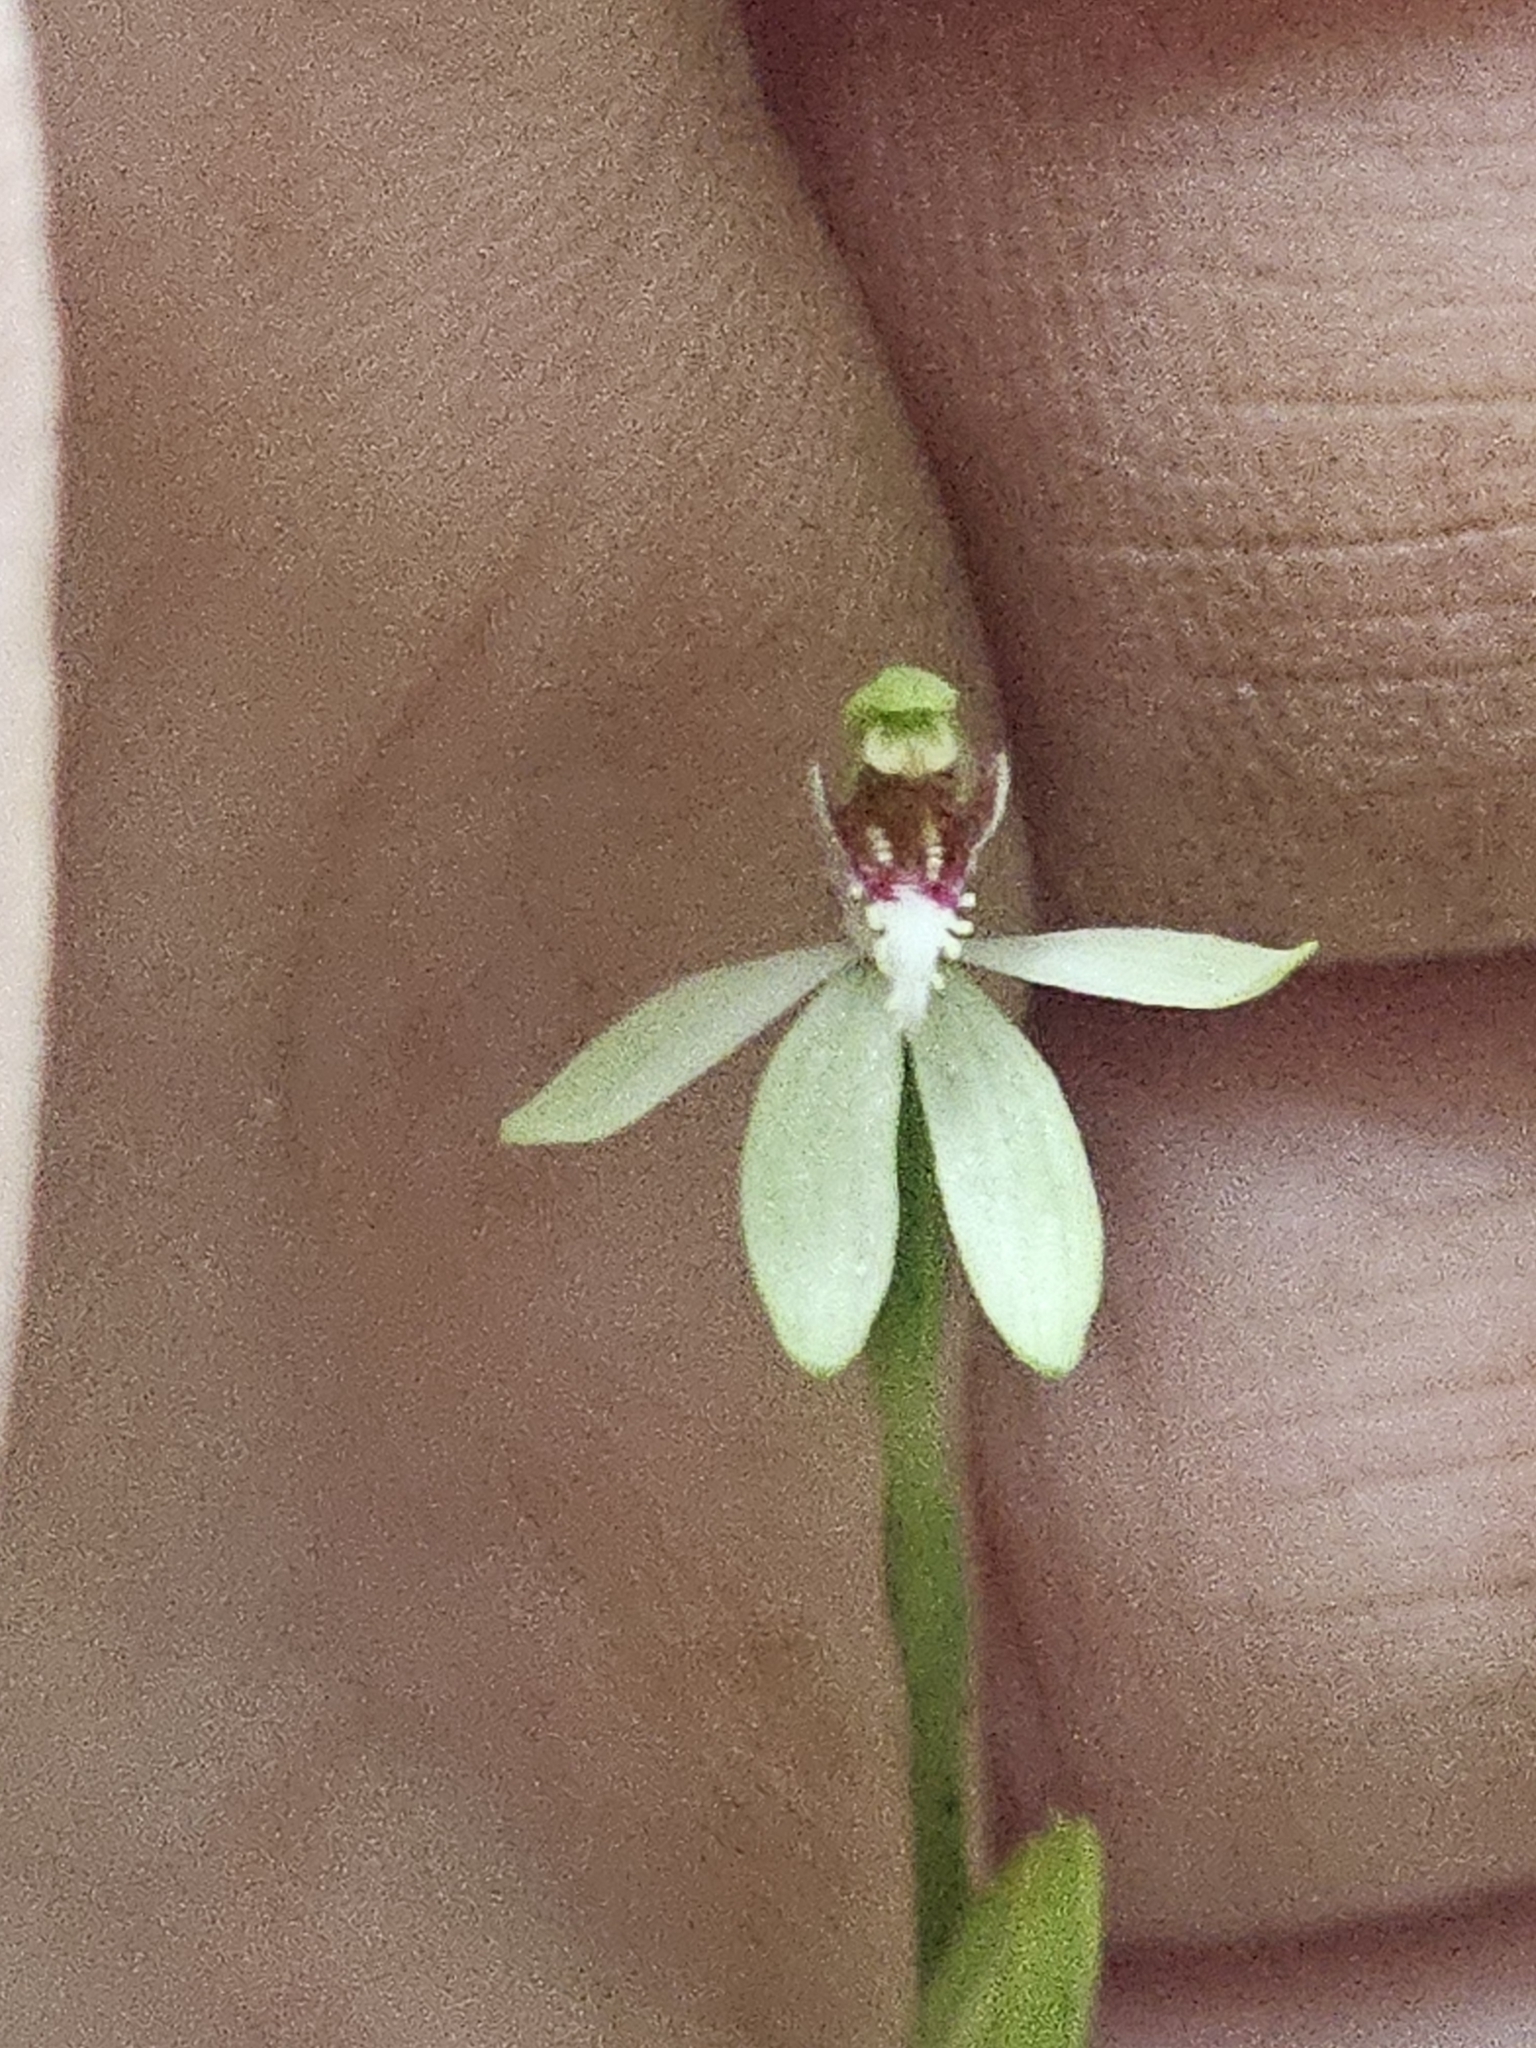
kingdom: Plantae
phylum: Tracheophyta
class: Liliopsida
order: Asparagales
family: Orchidaceae
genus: Caladenia
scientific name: Caladenia chlorostyla
